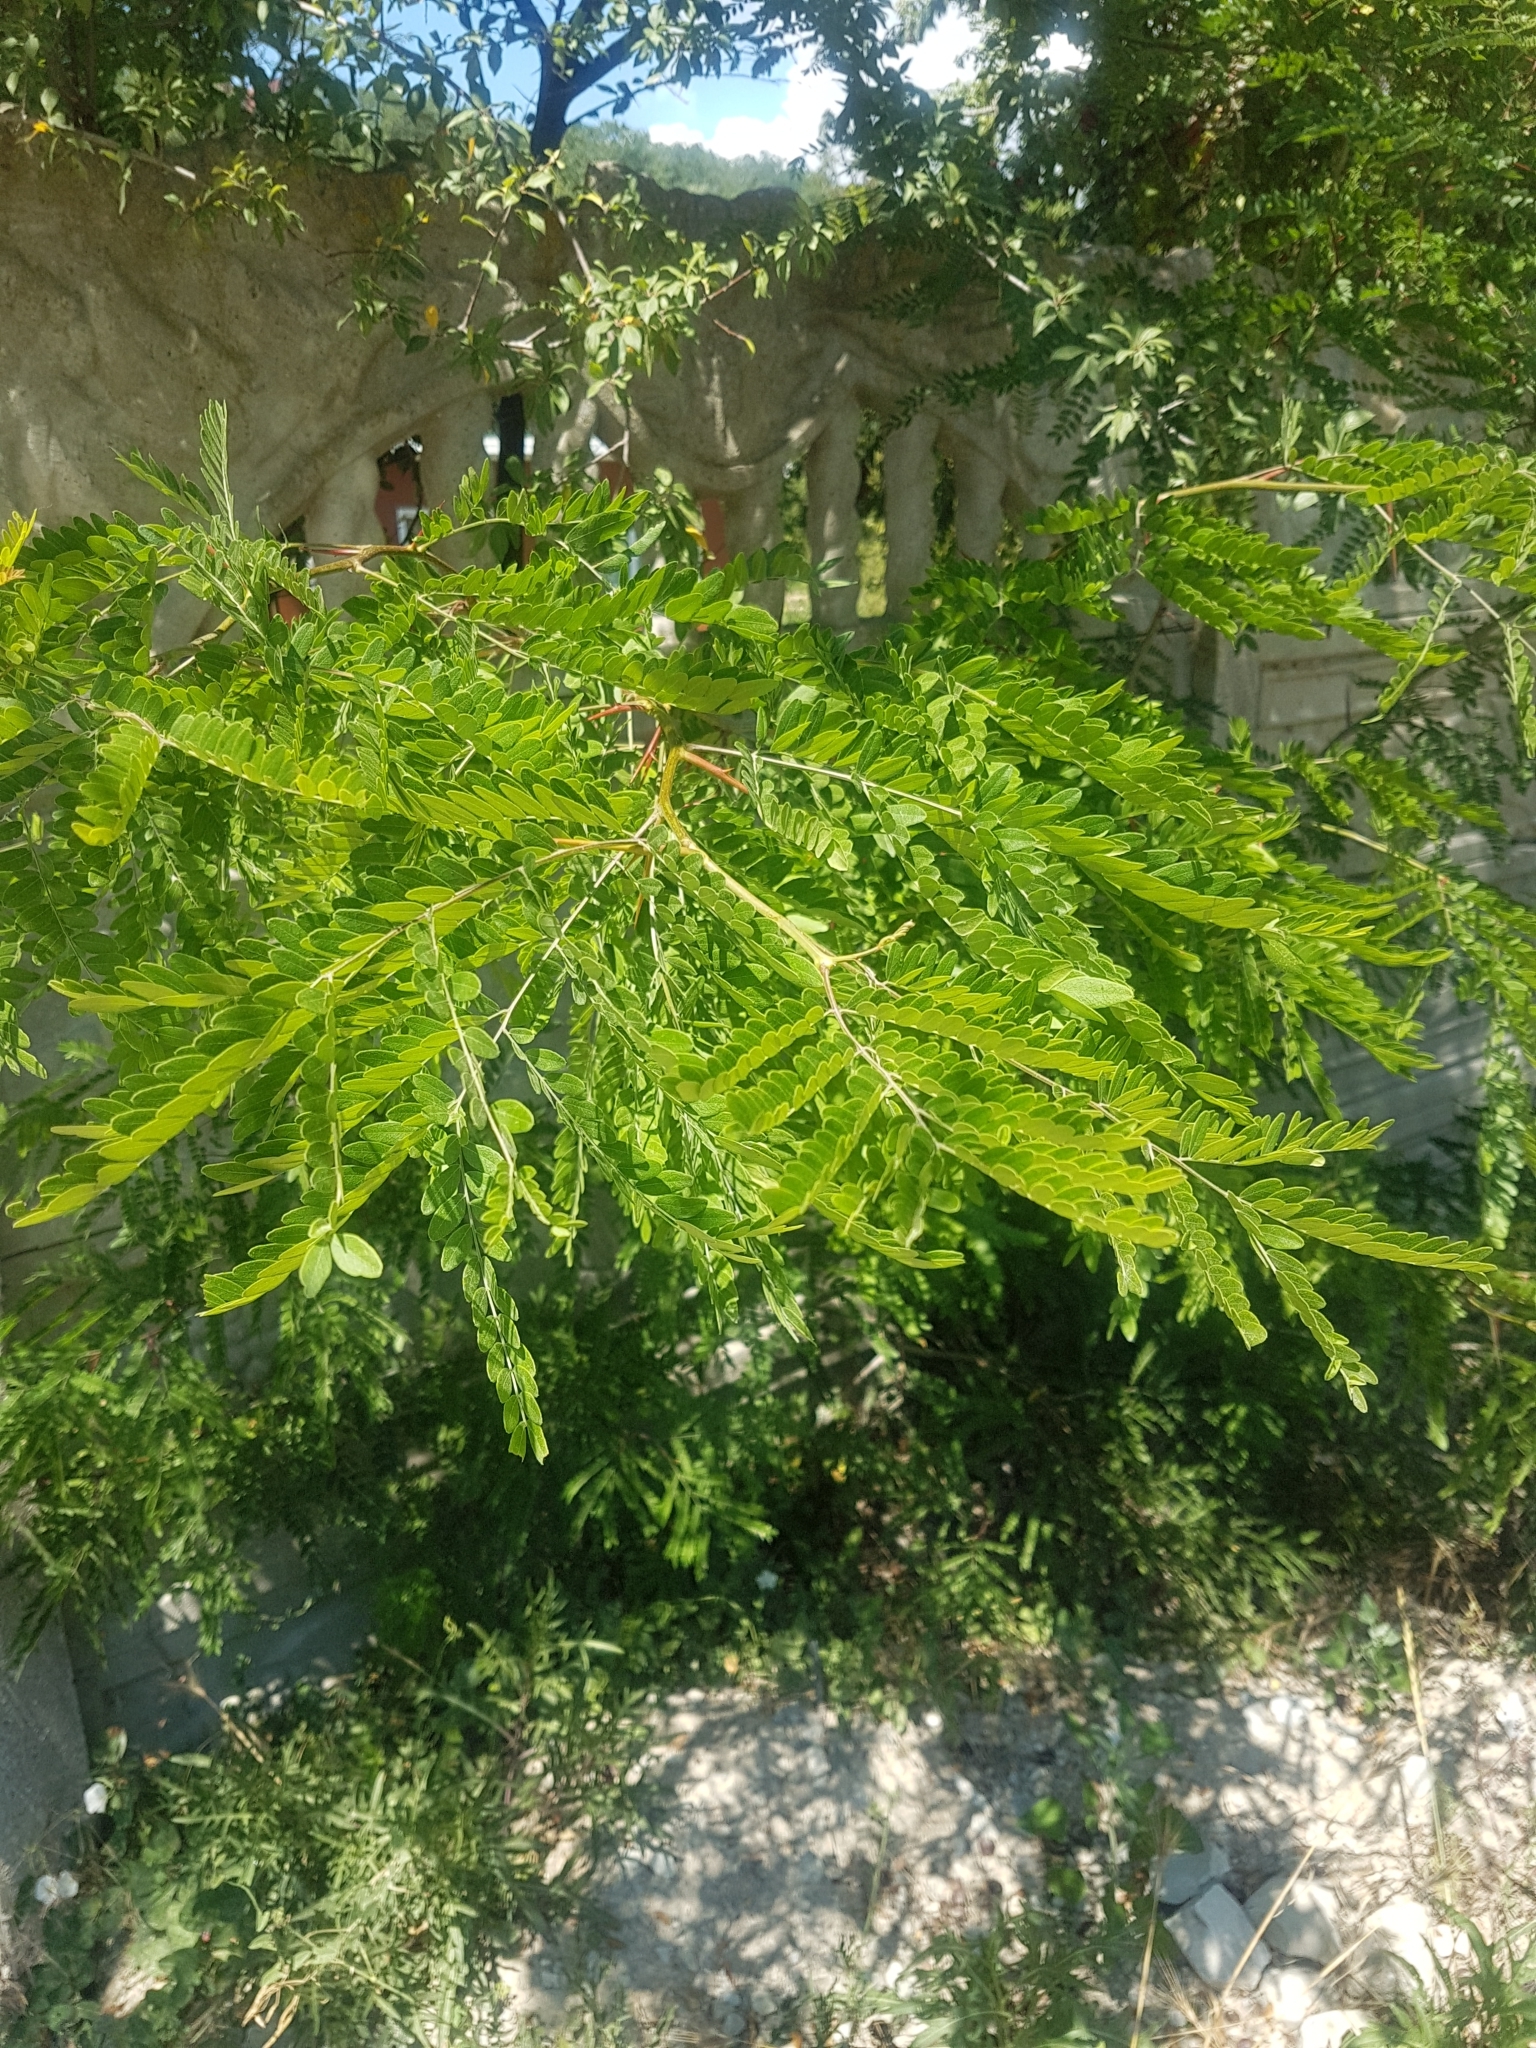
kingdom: Plantae
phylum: Tracheophyta
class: Magnoliopsida
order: Fabales
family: Fabaceae
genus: Gleditsia
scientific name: Gleditsia triacanthos
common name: Common honeylocust
